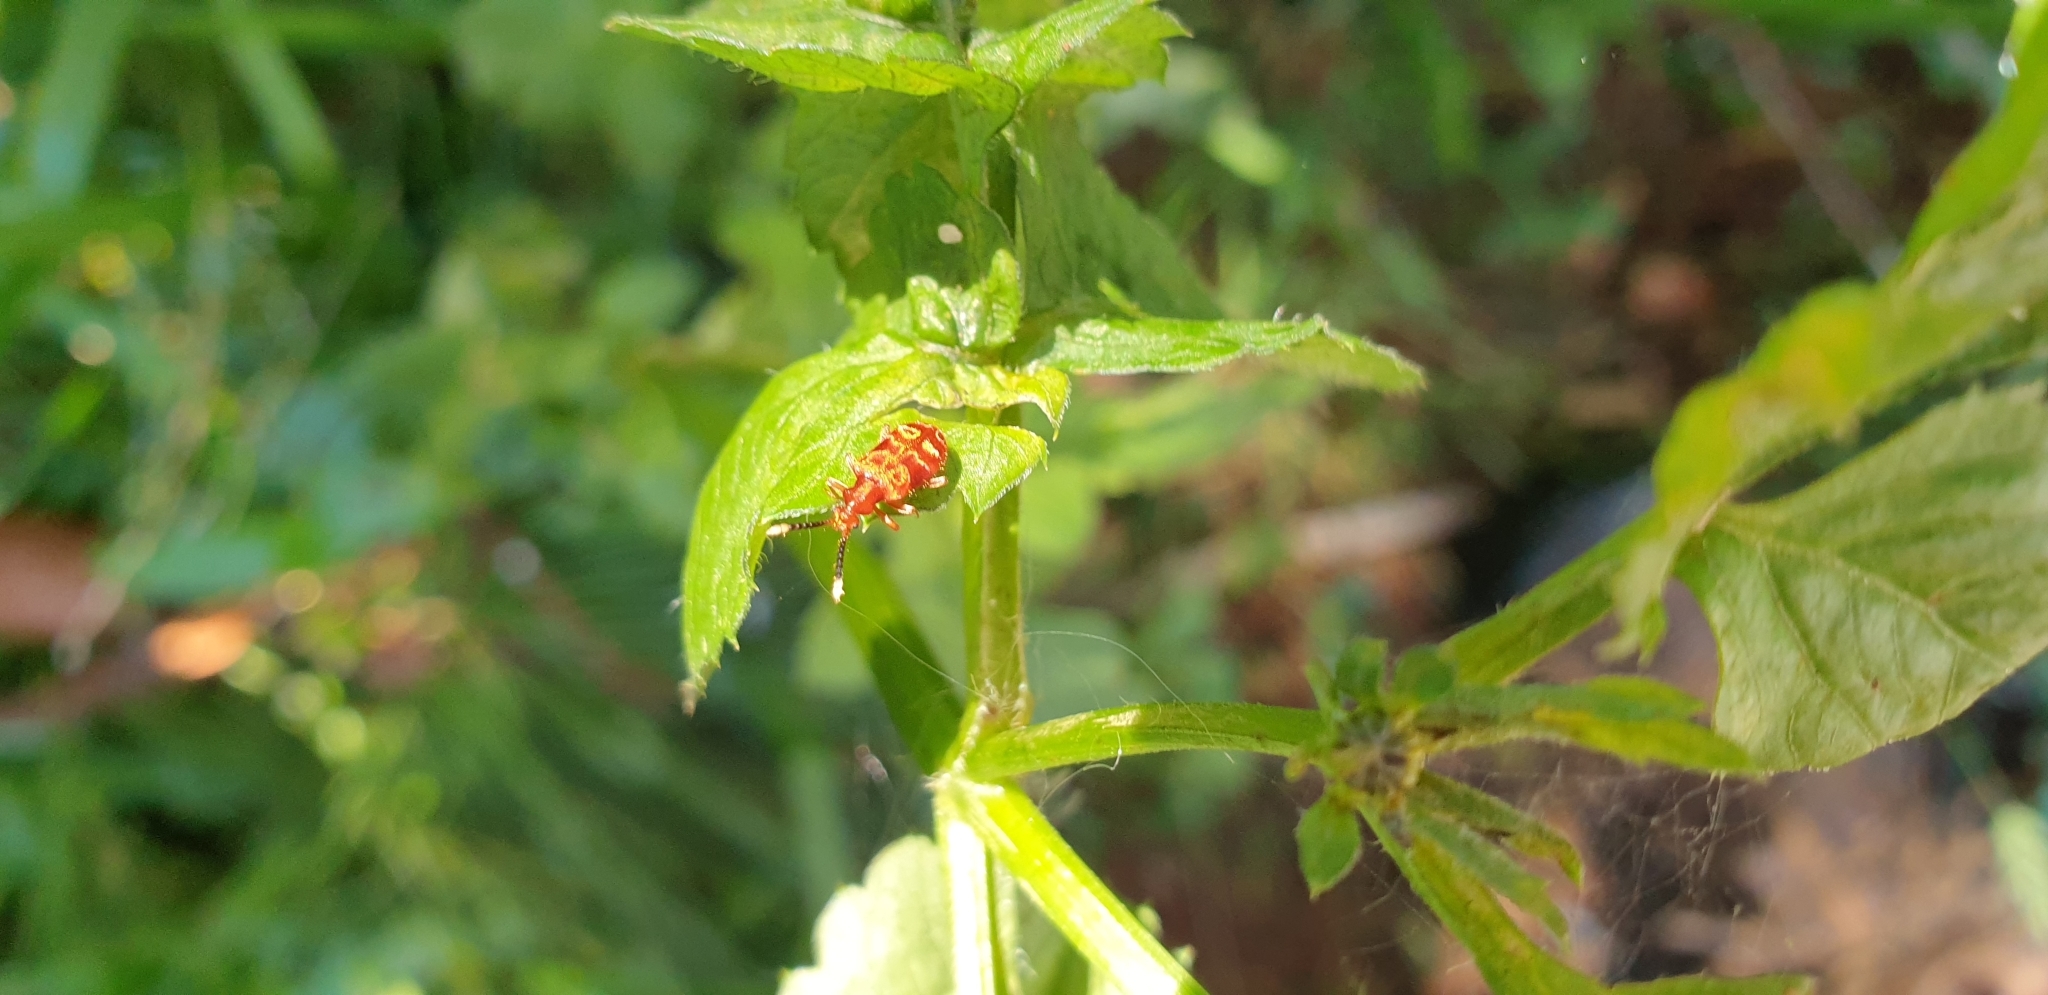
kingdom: Animalia
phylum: Arthropoda
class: Insecta
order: Coleoptera
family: Anthicidae
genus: Lemodes
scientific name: Lemodes
